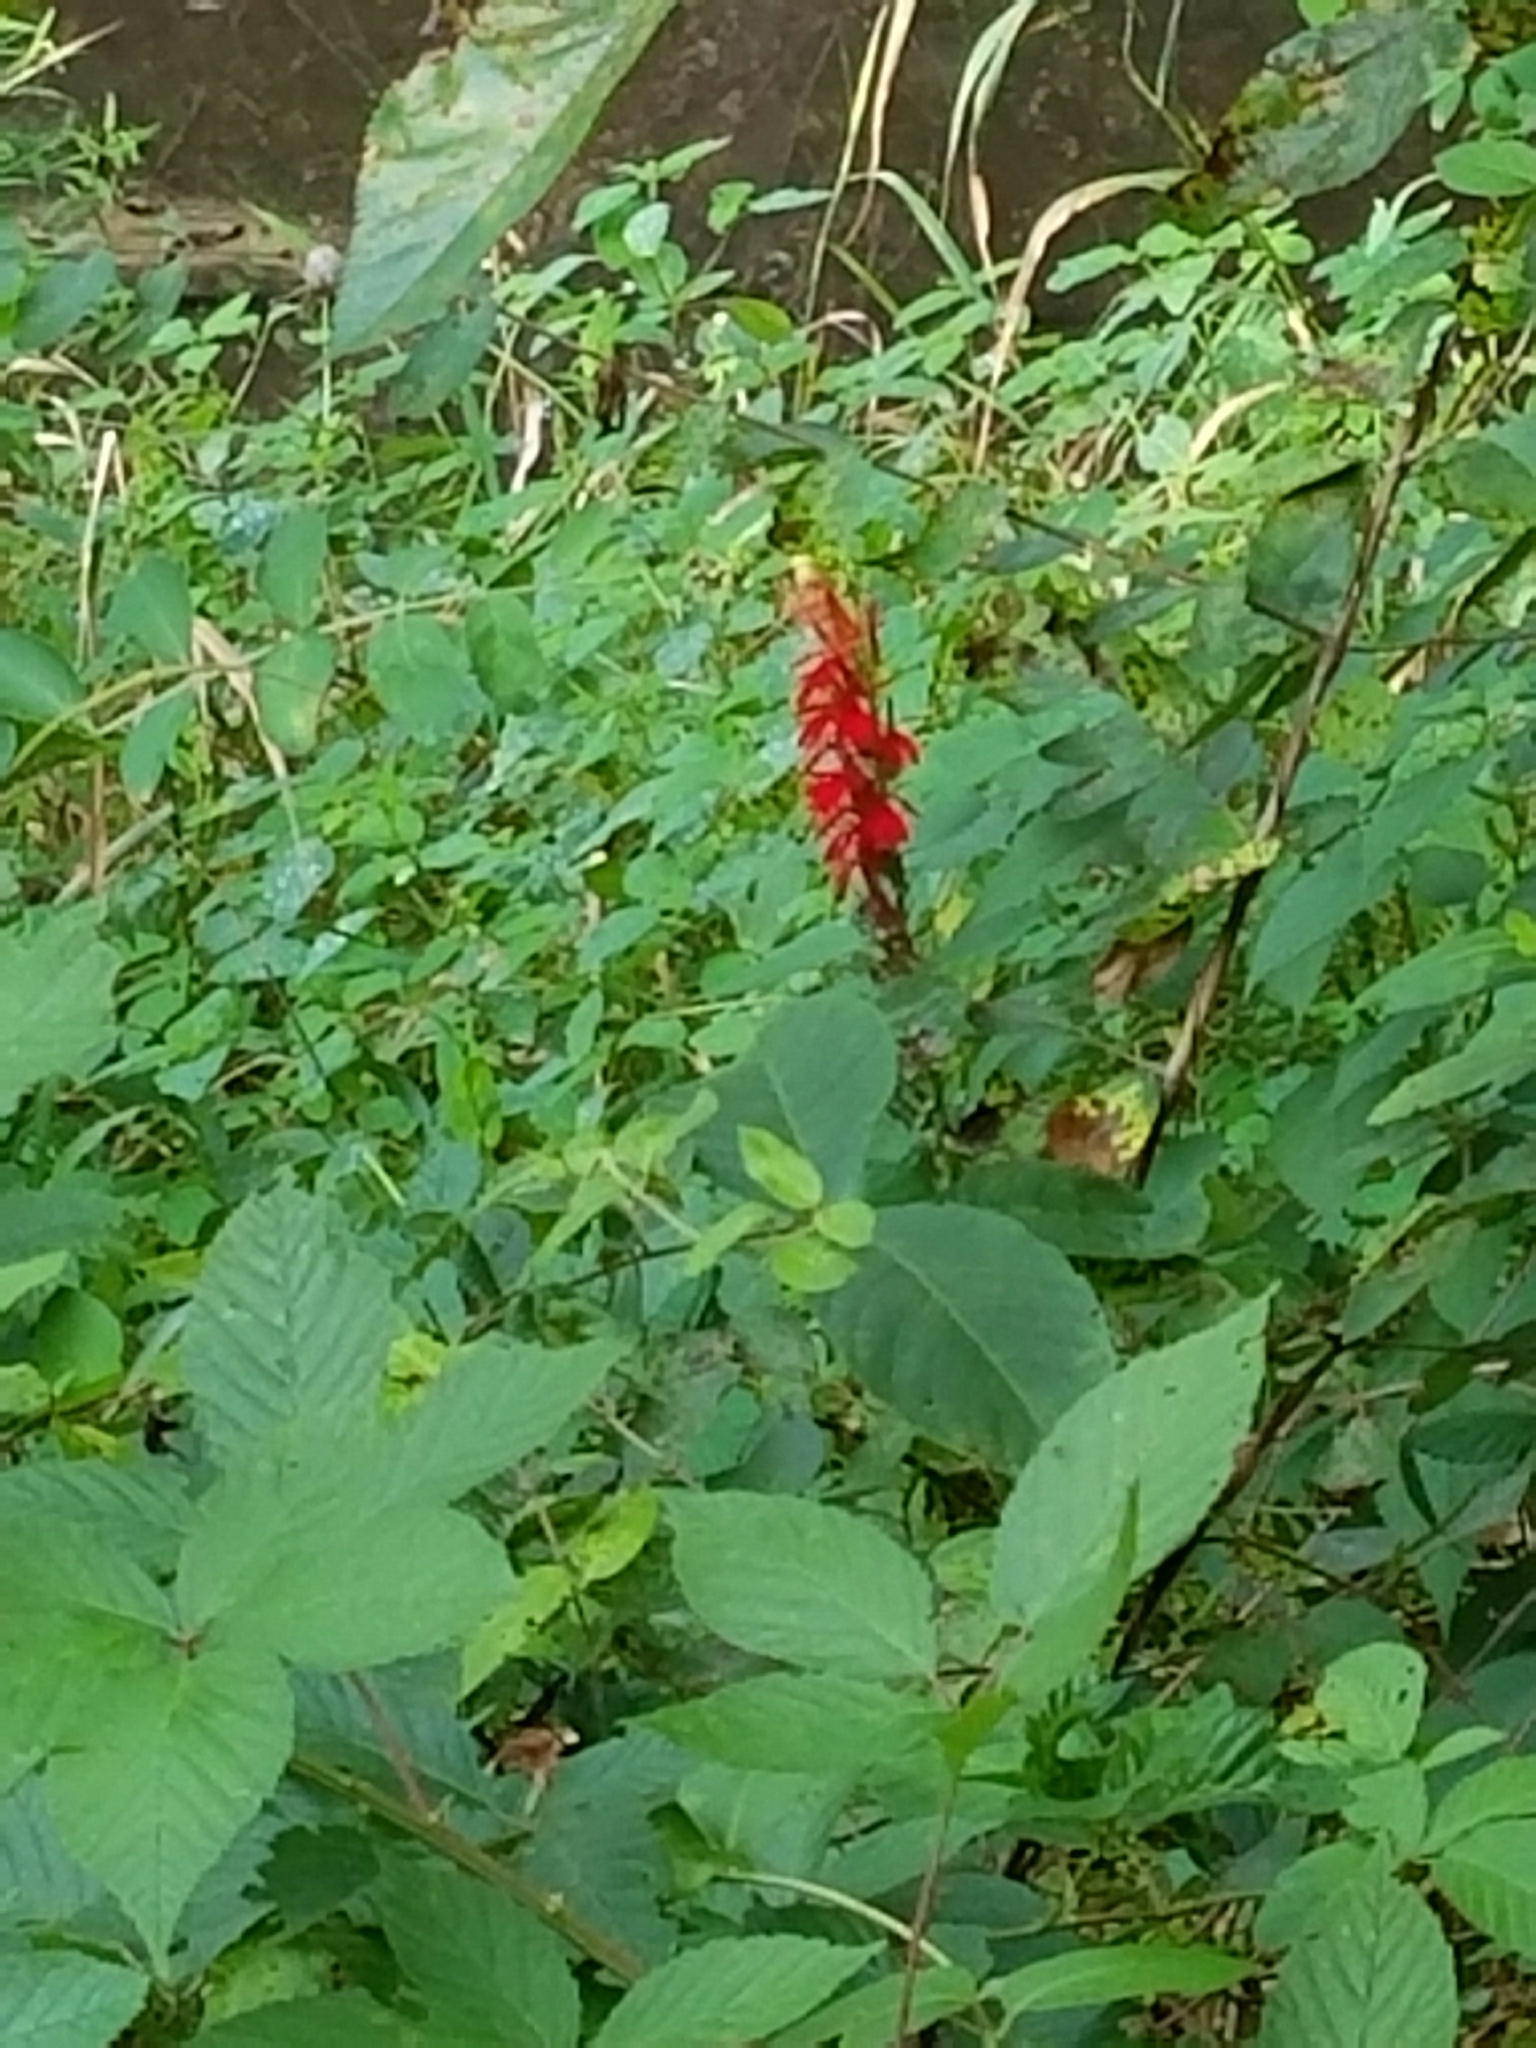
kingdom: Plantae
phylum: Tracheophyta
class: Magnoliopsida
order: Asterales
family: Campanulaceae
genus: Lobelia
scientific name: Lobelia cardinalis
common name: Cardinal flower
